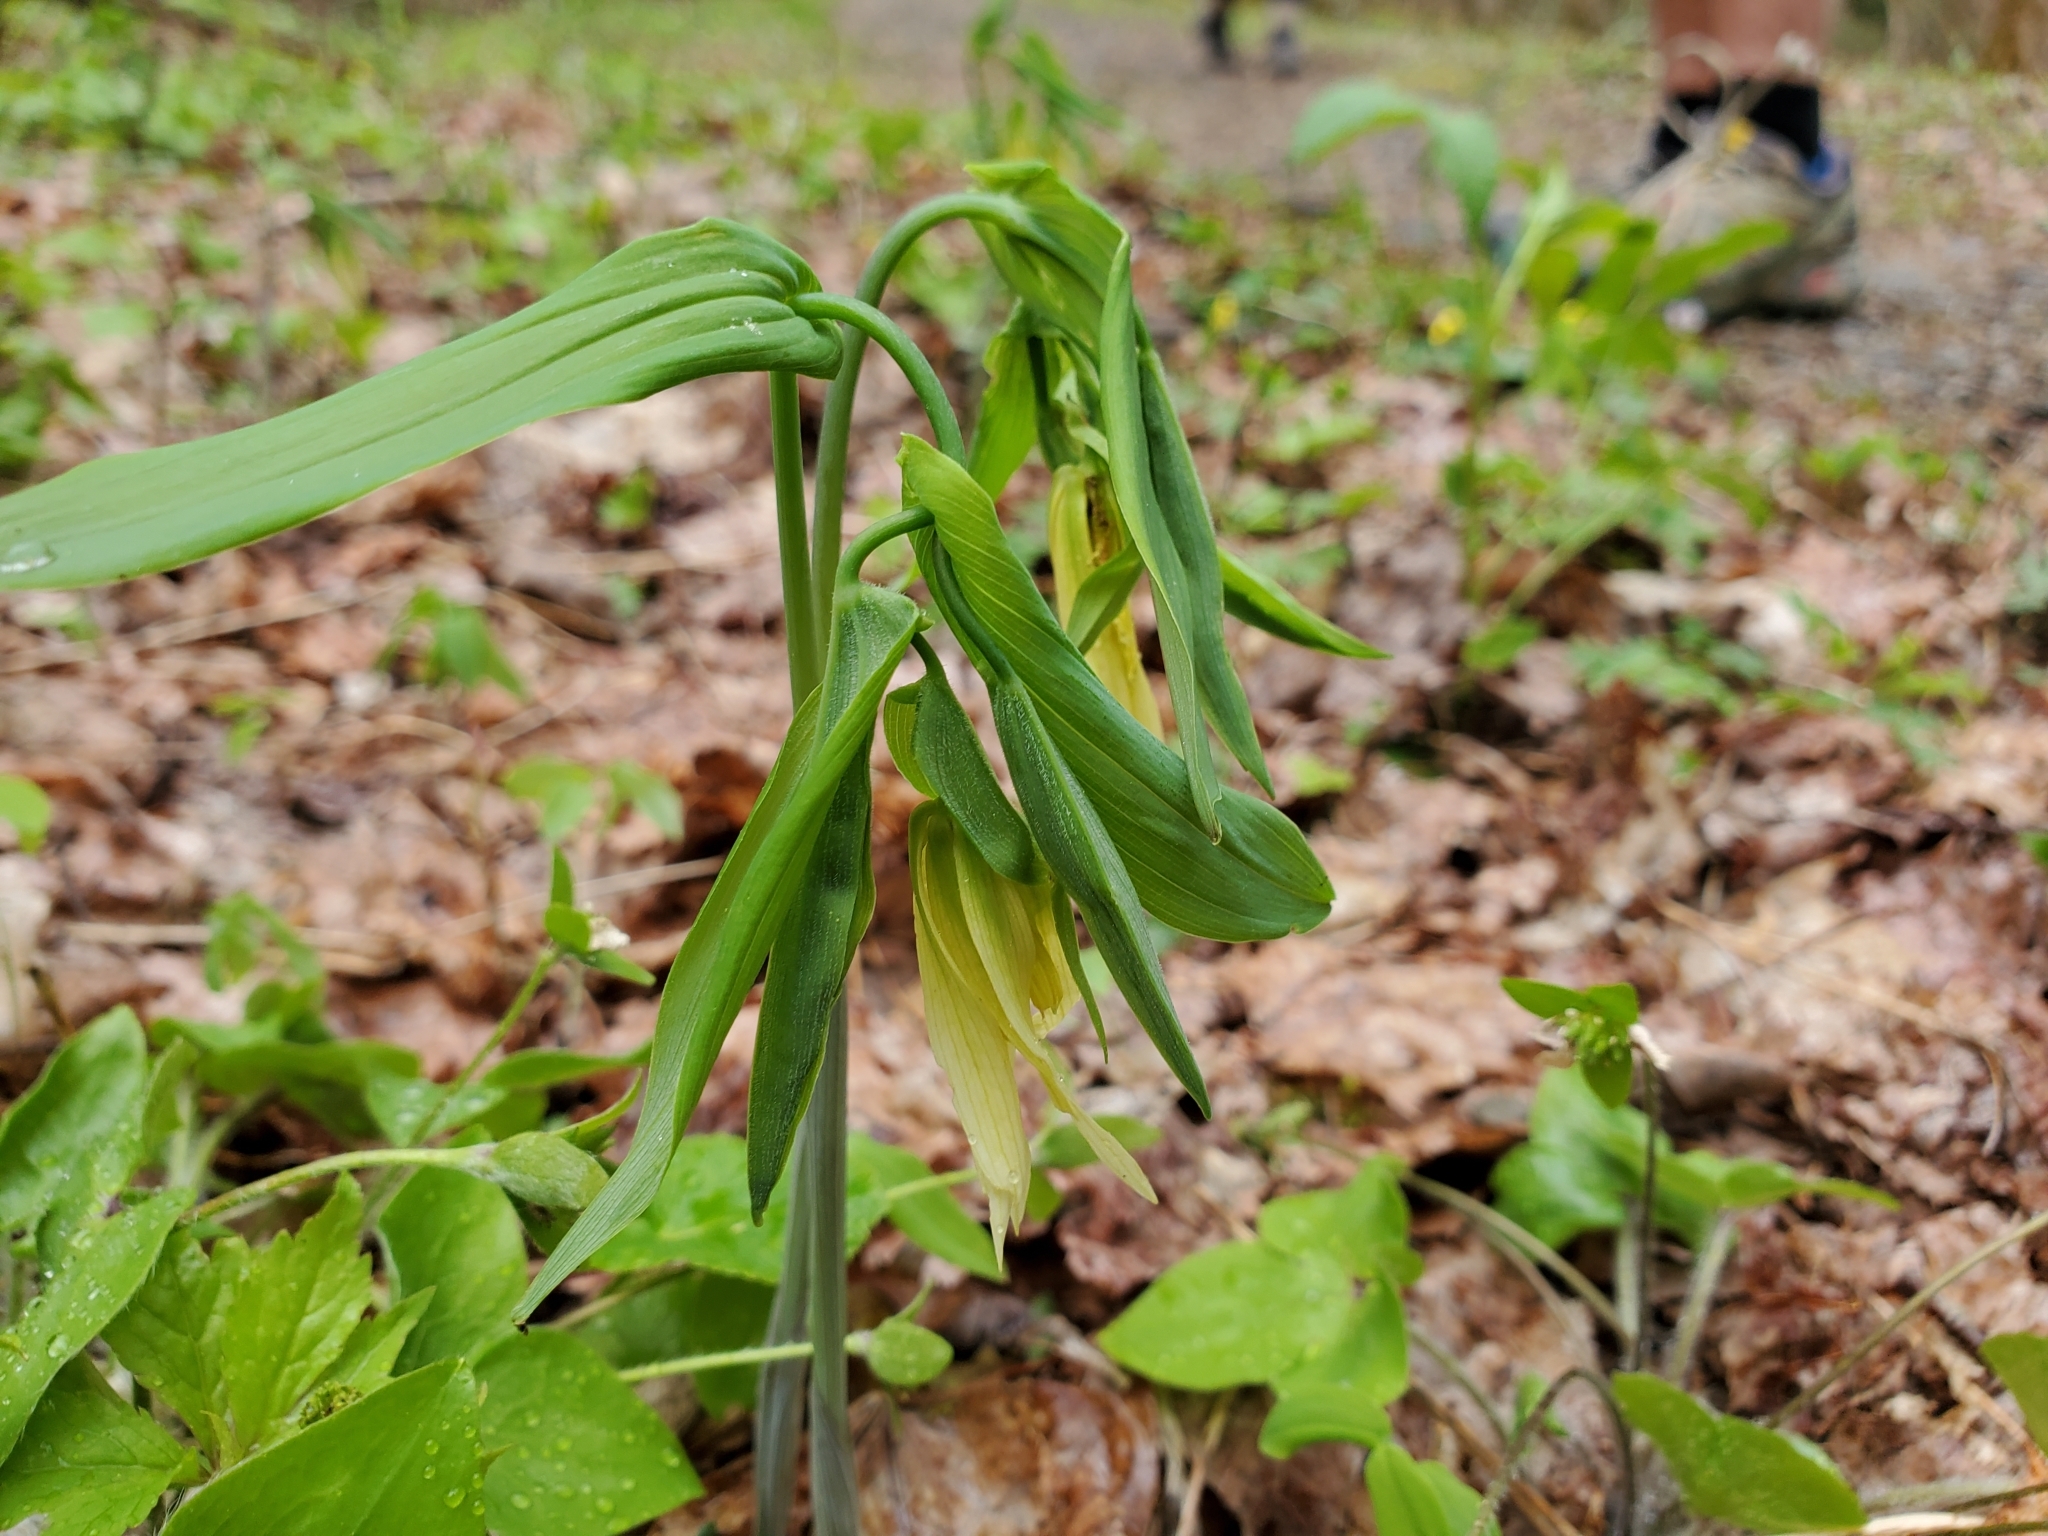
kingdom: Plantae
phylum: Tracheophyta
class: Liliopsida
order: Liliales
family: Colchicaceae
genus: Uvularia
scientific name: Uvularia grandiflora
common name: Bellwort
